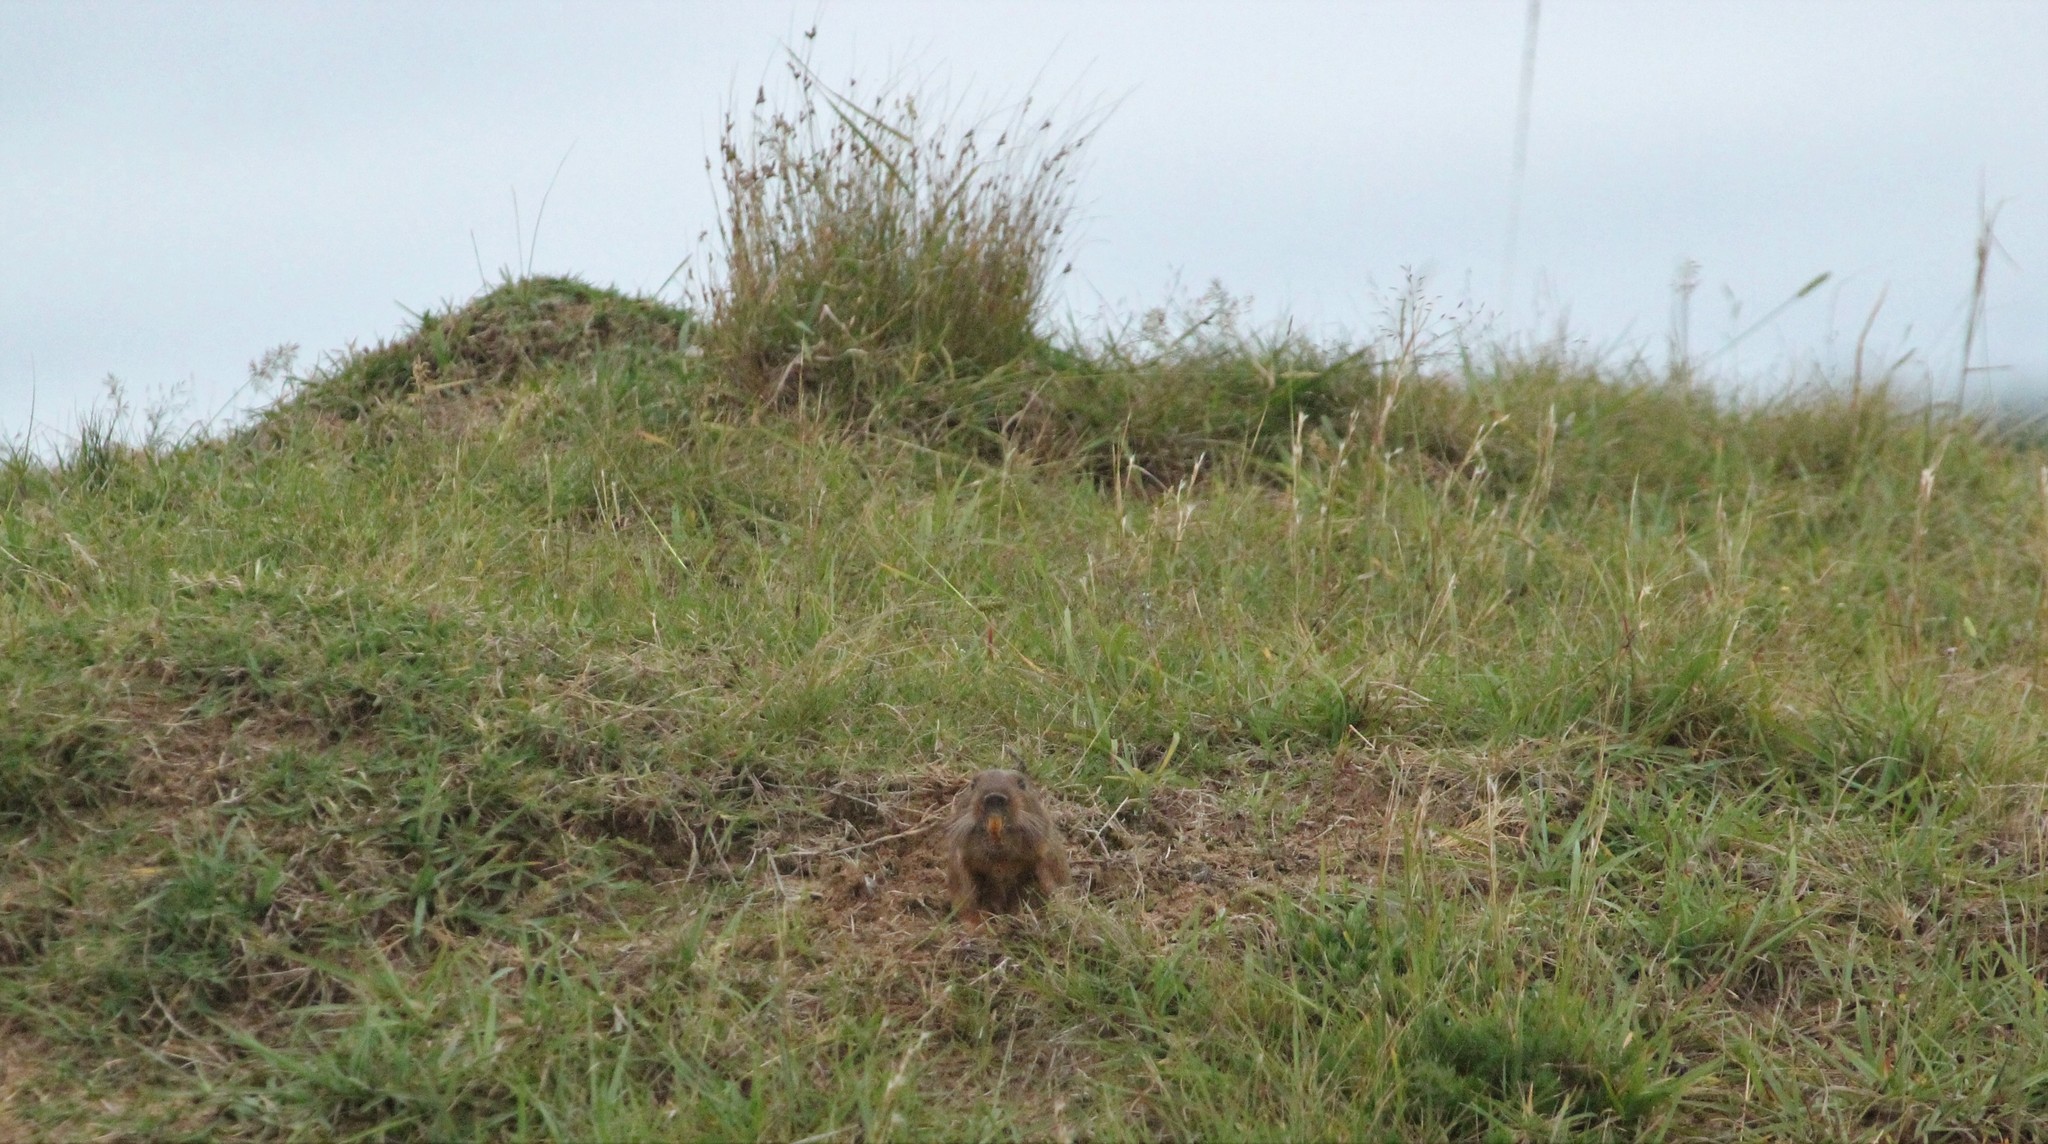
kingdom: Animalia
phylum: Chordata
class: Mammalia
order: Rodentia
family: Ctenomyidae
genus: Ctenomys
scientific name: Ctenomys pearsoni
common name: Pearson's tuco-tuco
